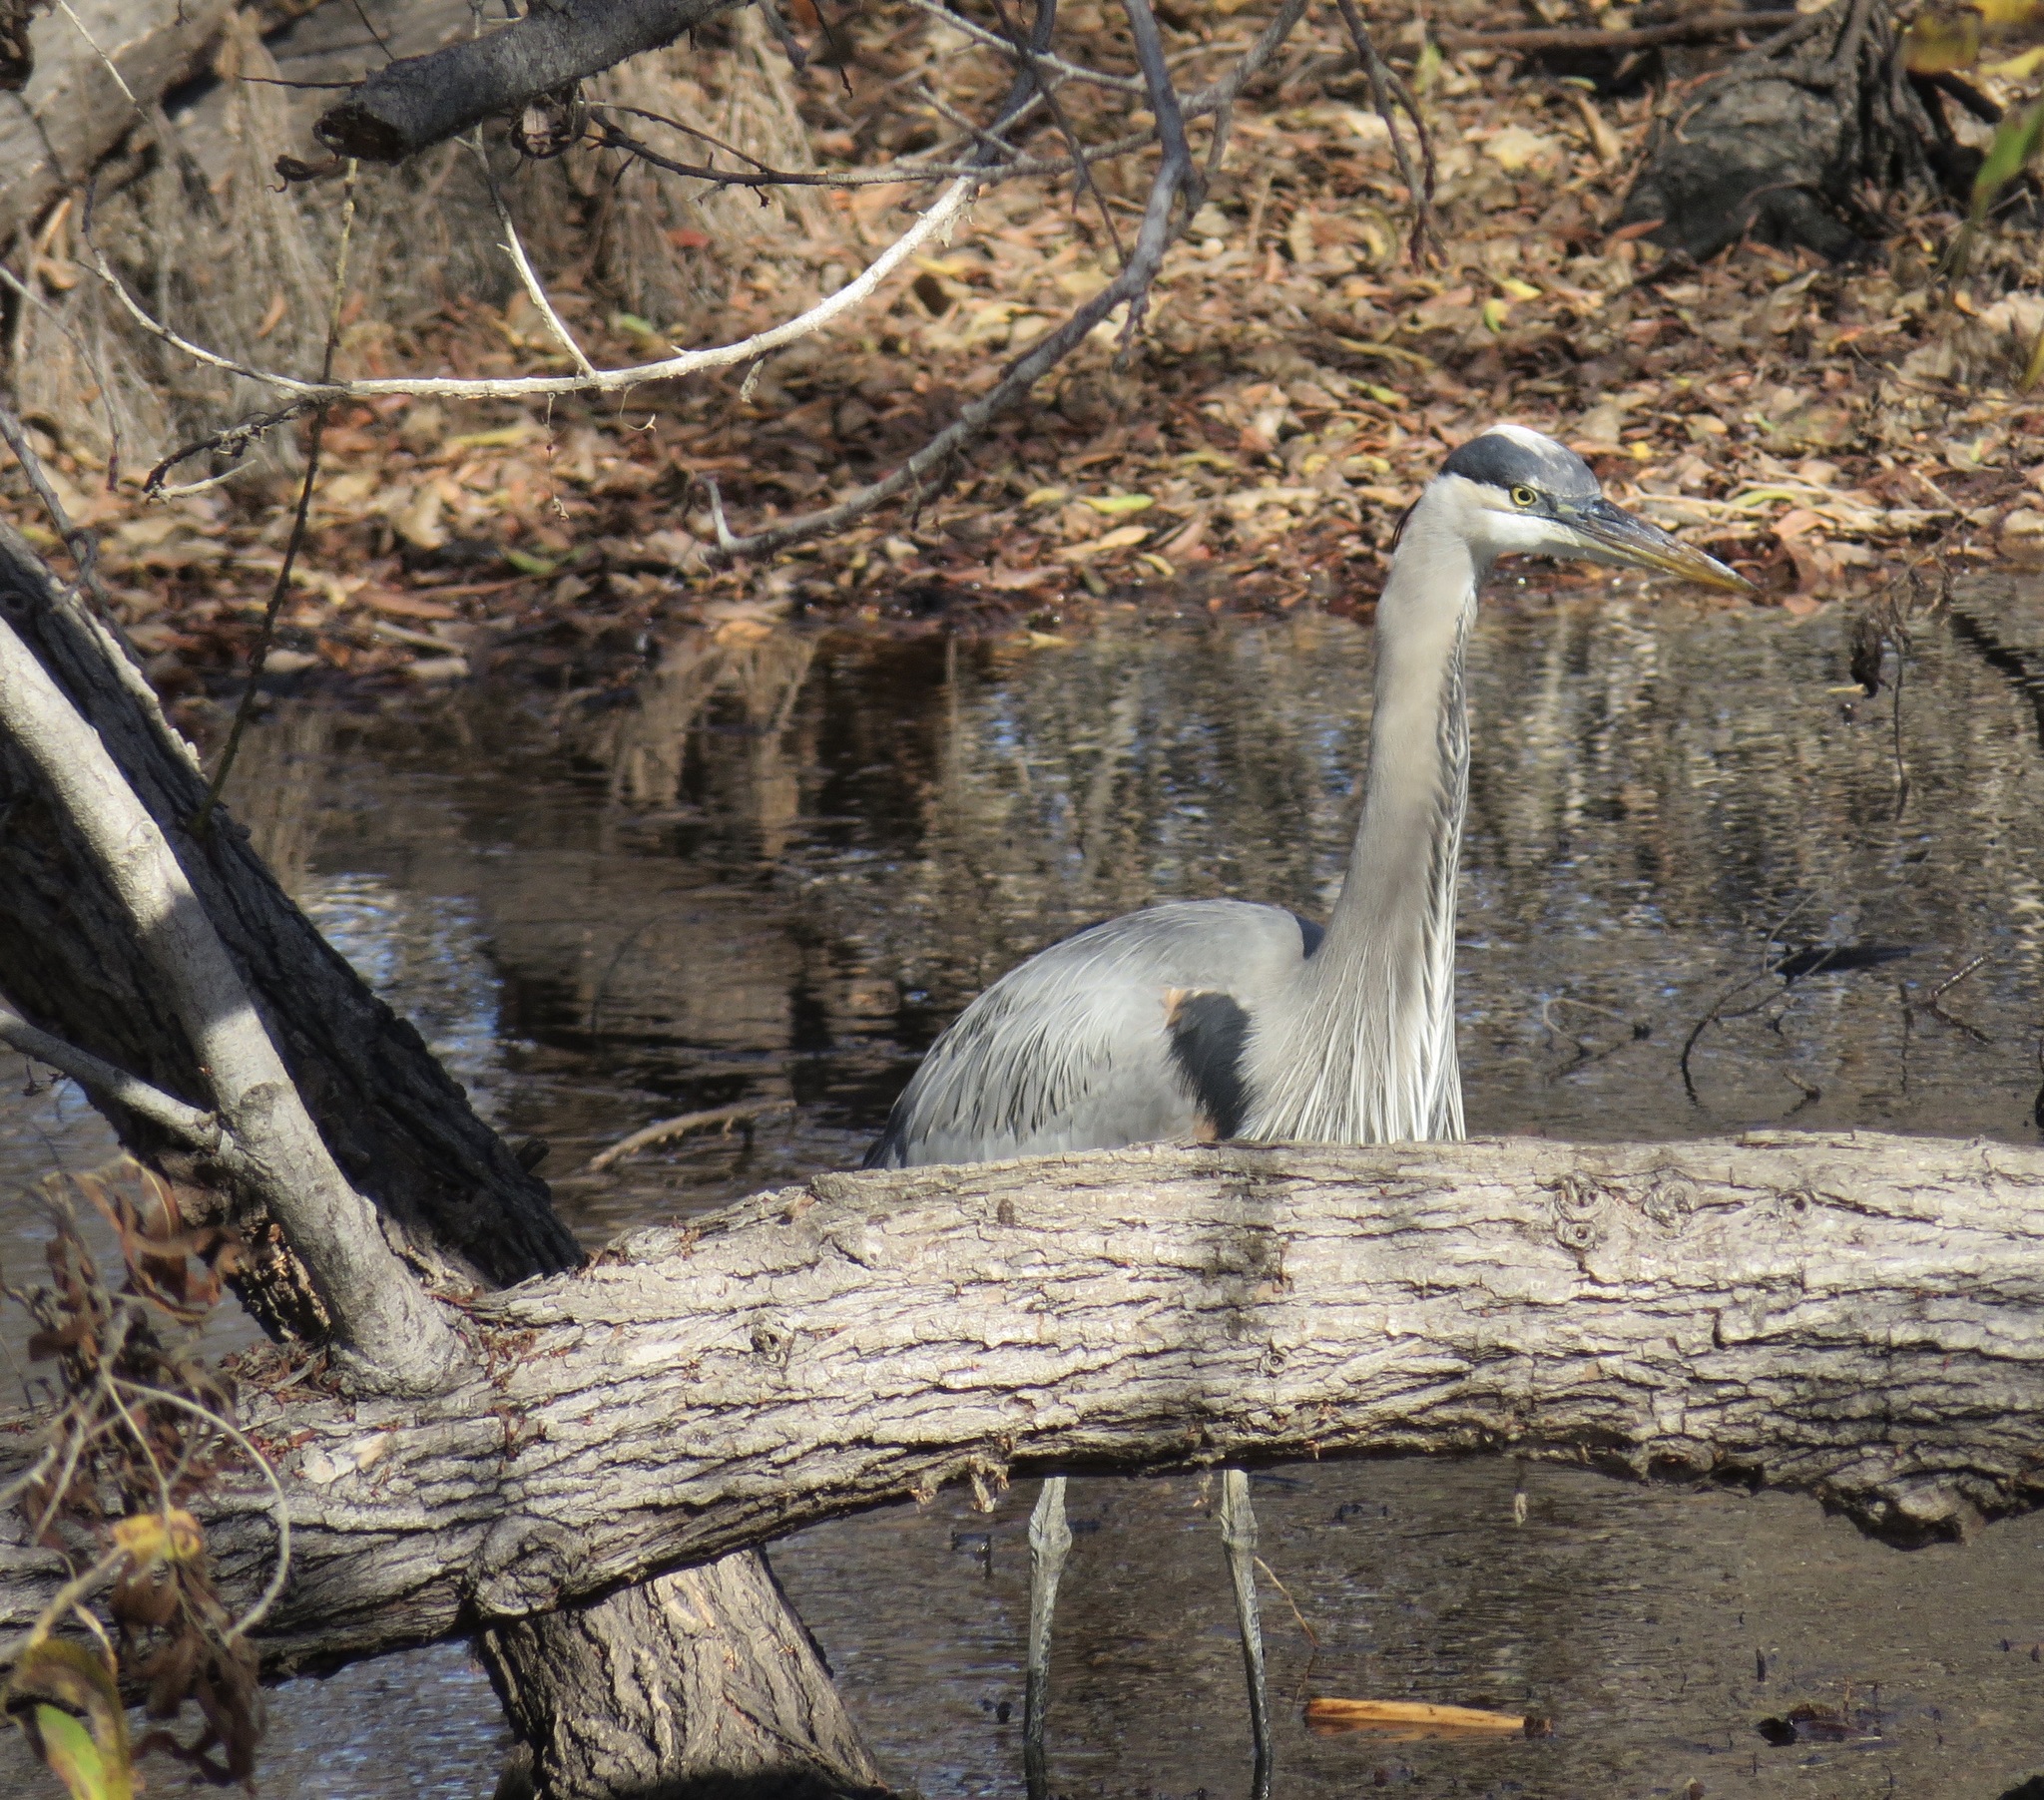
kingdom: Animalia
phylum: Chordata
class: Aves
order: Pelecaniformes
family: Ardeidae
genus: Ardea
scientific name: Ardea herodias
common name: Great blue heron
